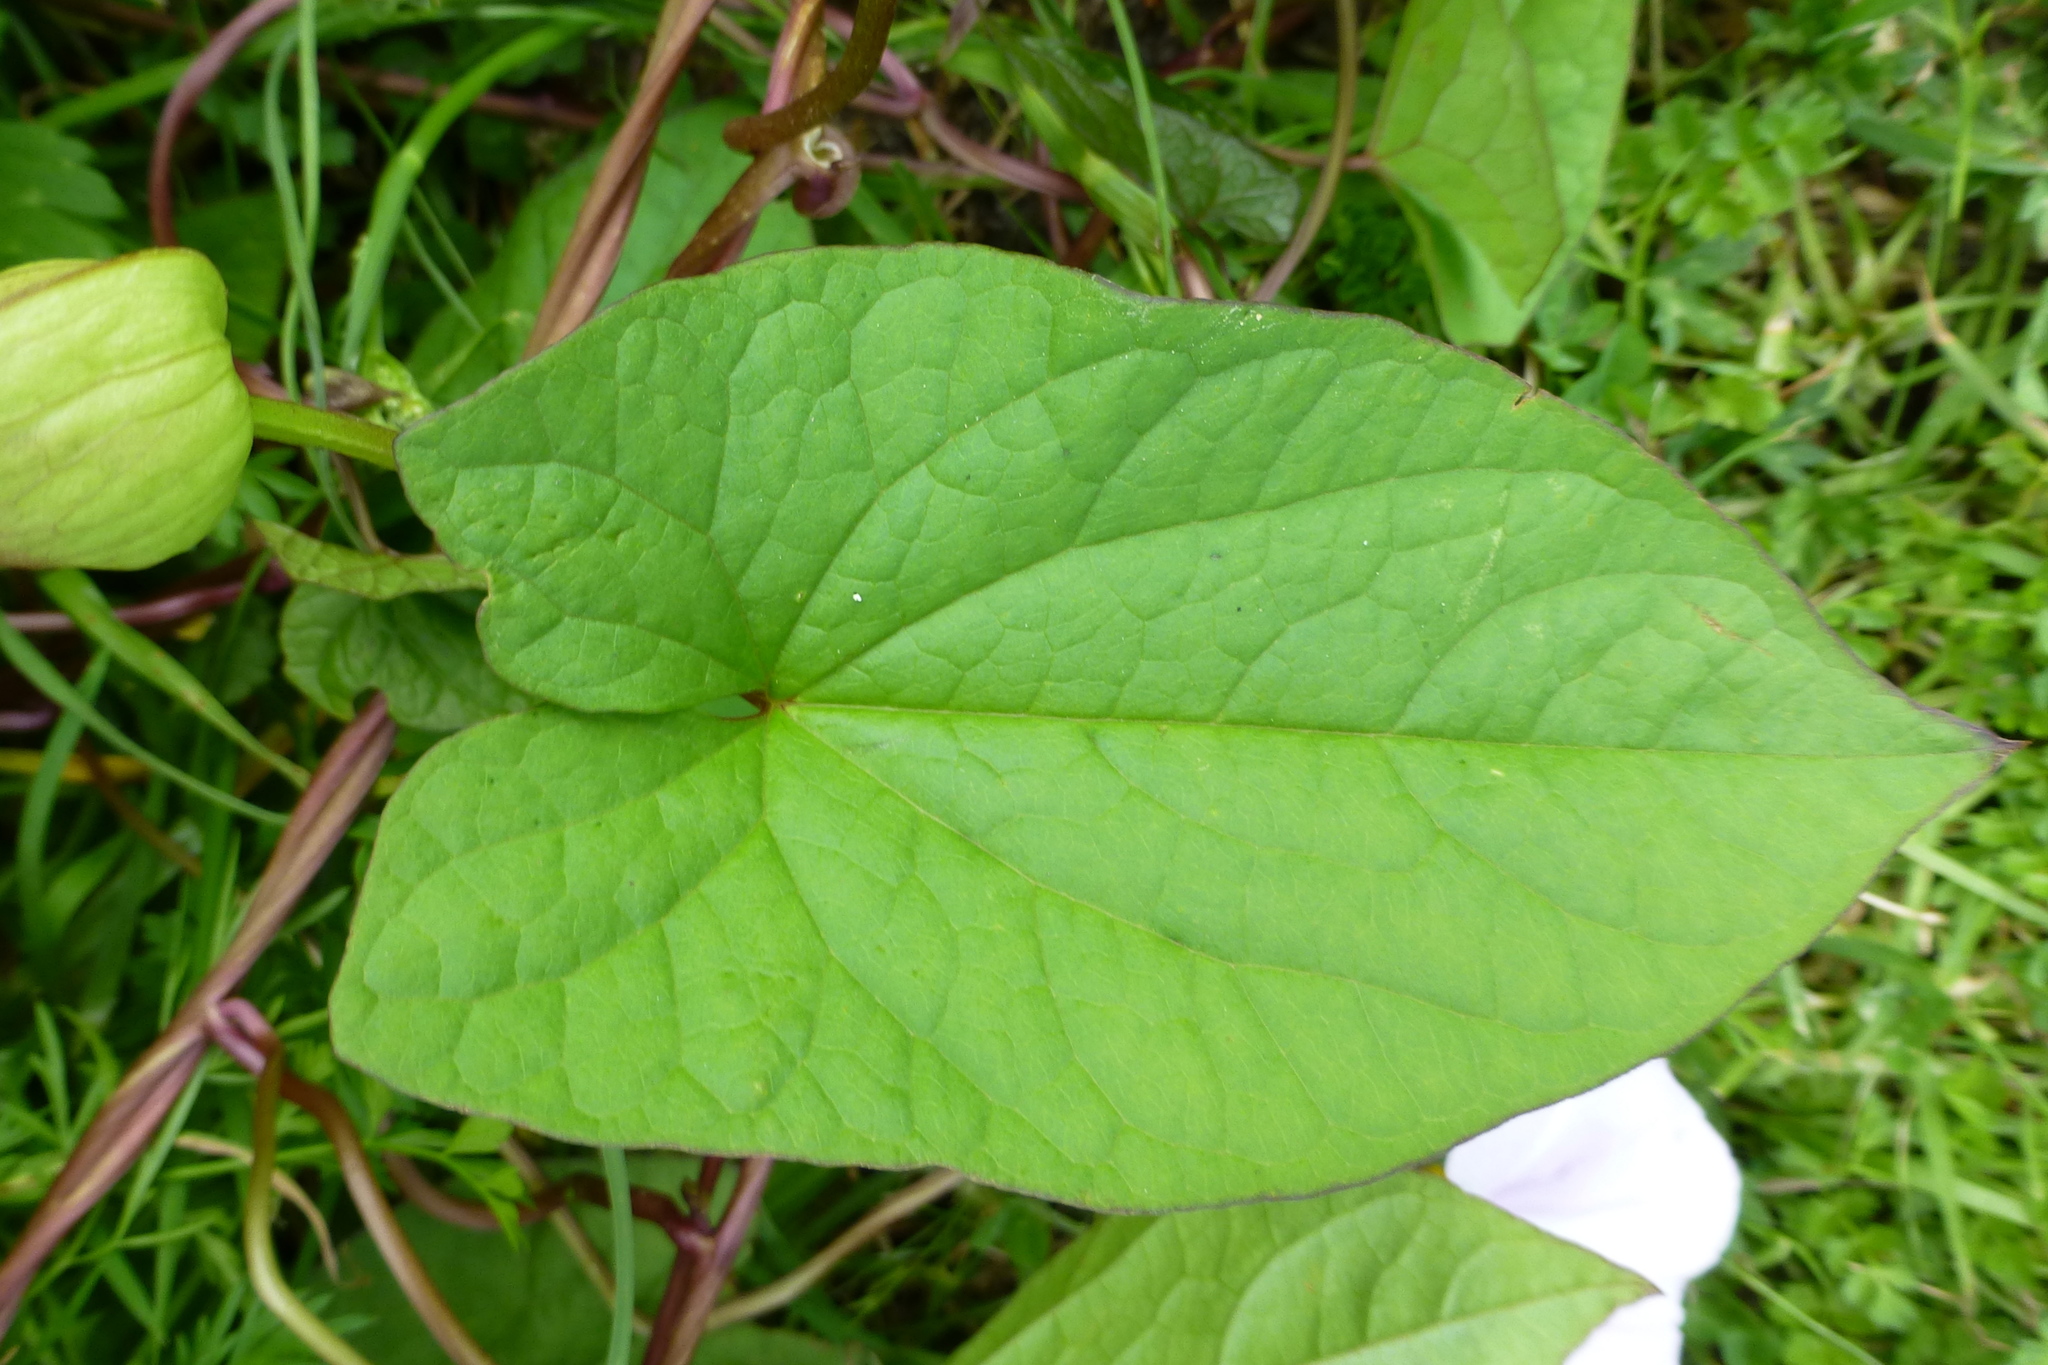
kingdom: Plantae
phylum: Tracheophyta
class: Magnoliopsida
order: Solanales
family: Convolvulaceae
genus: Calystegia
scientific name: Calystegia silvatica
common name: Large bindweed
